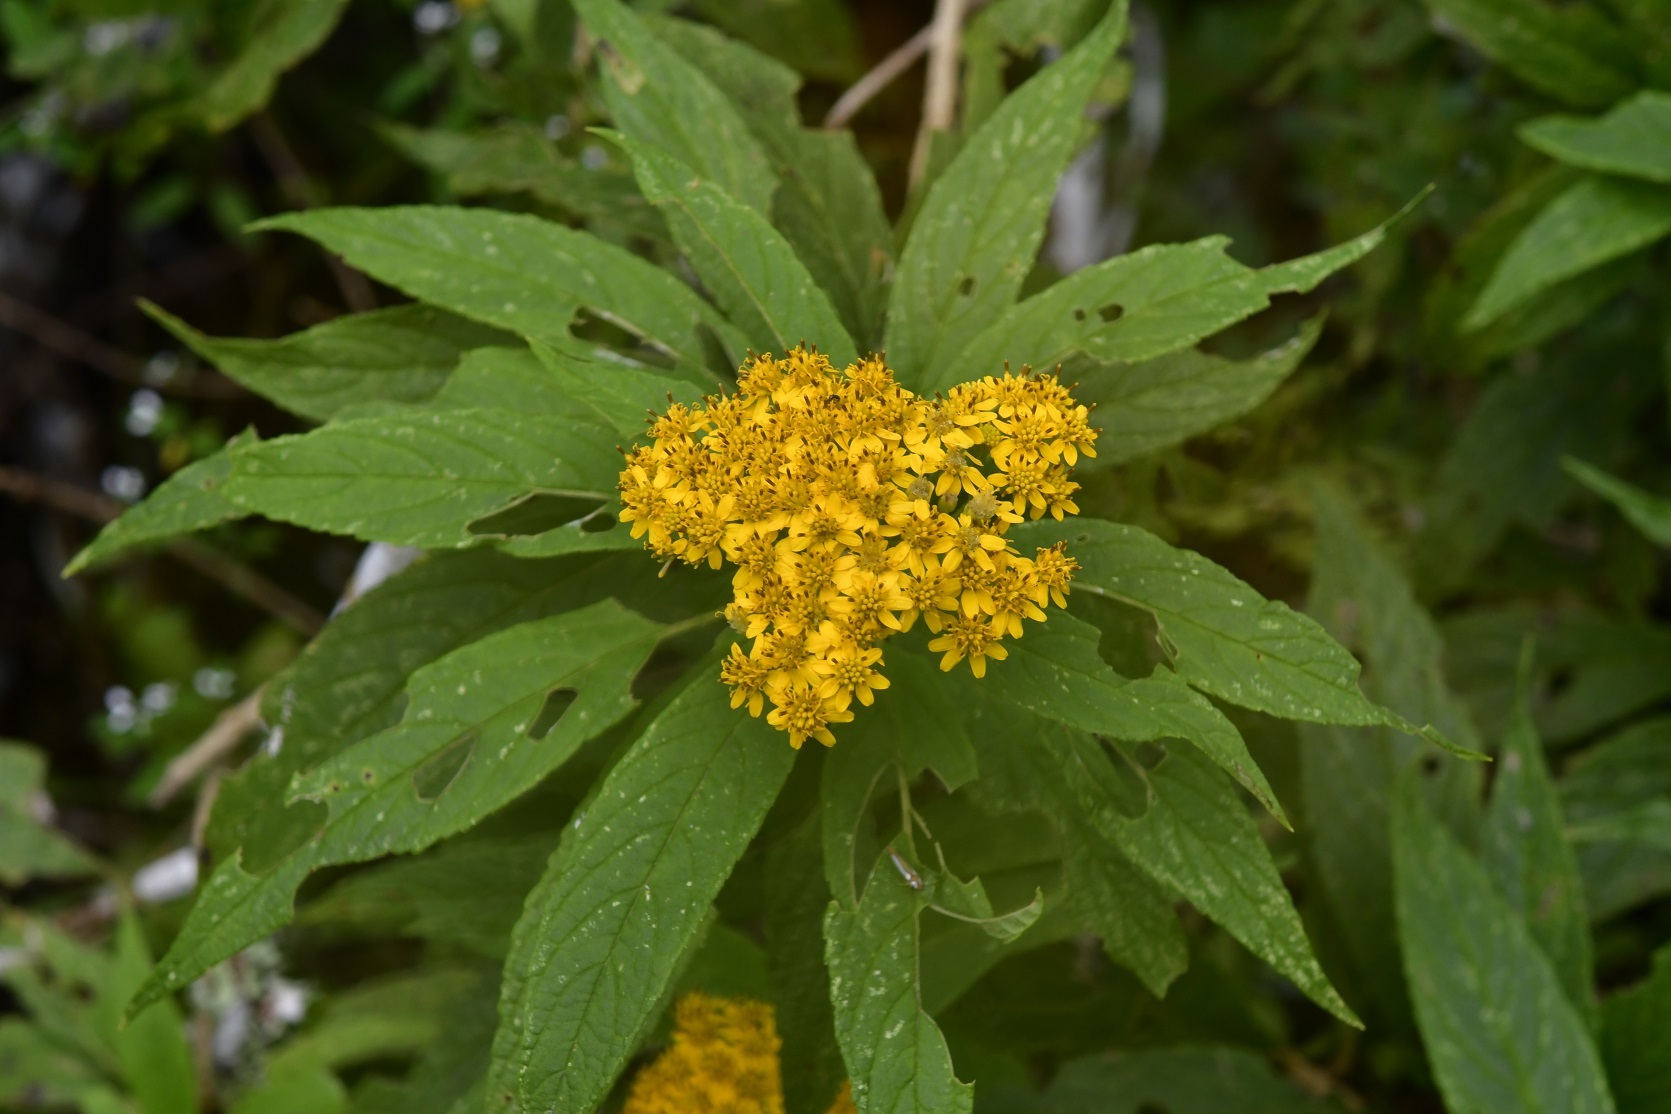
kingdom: Plantae
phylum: Tracheophyta
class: Magnoliopsida
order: Asterales
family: Asteraceae
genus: Verbesina
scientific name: Verbesina hypargyrea
